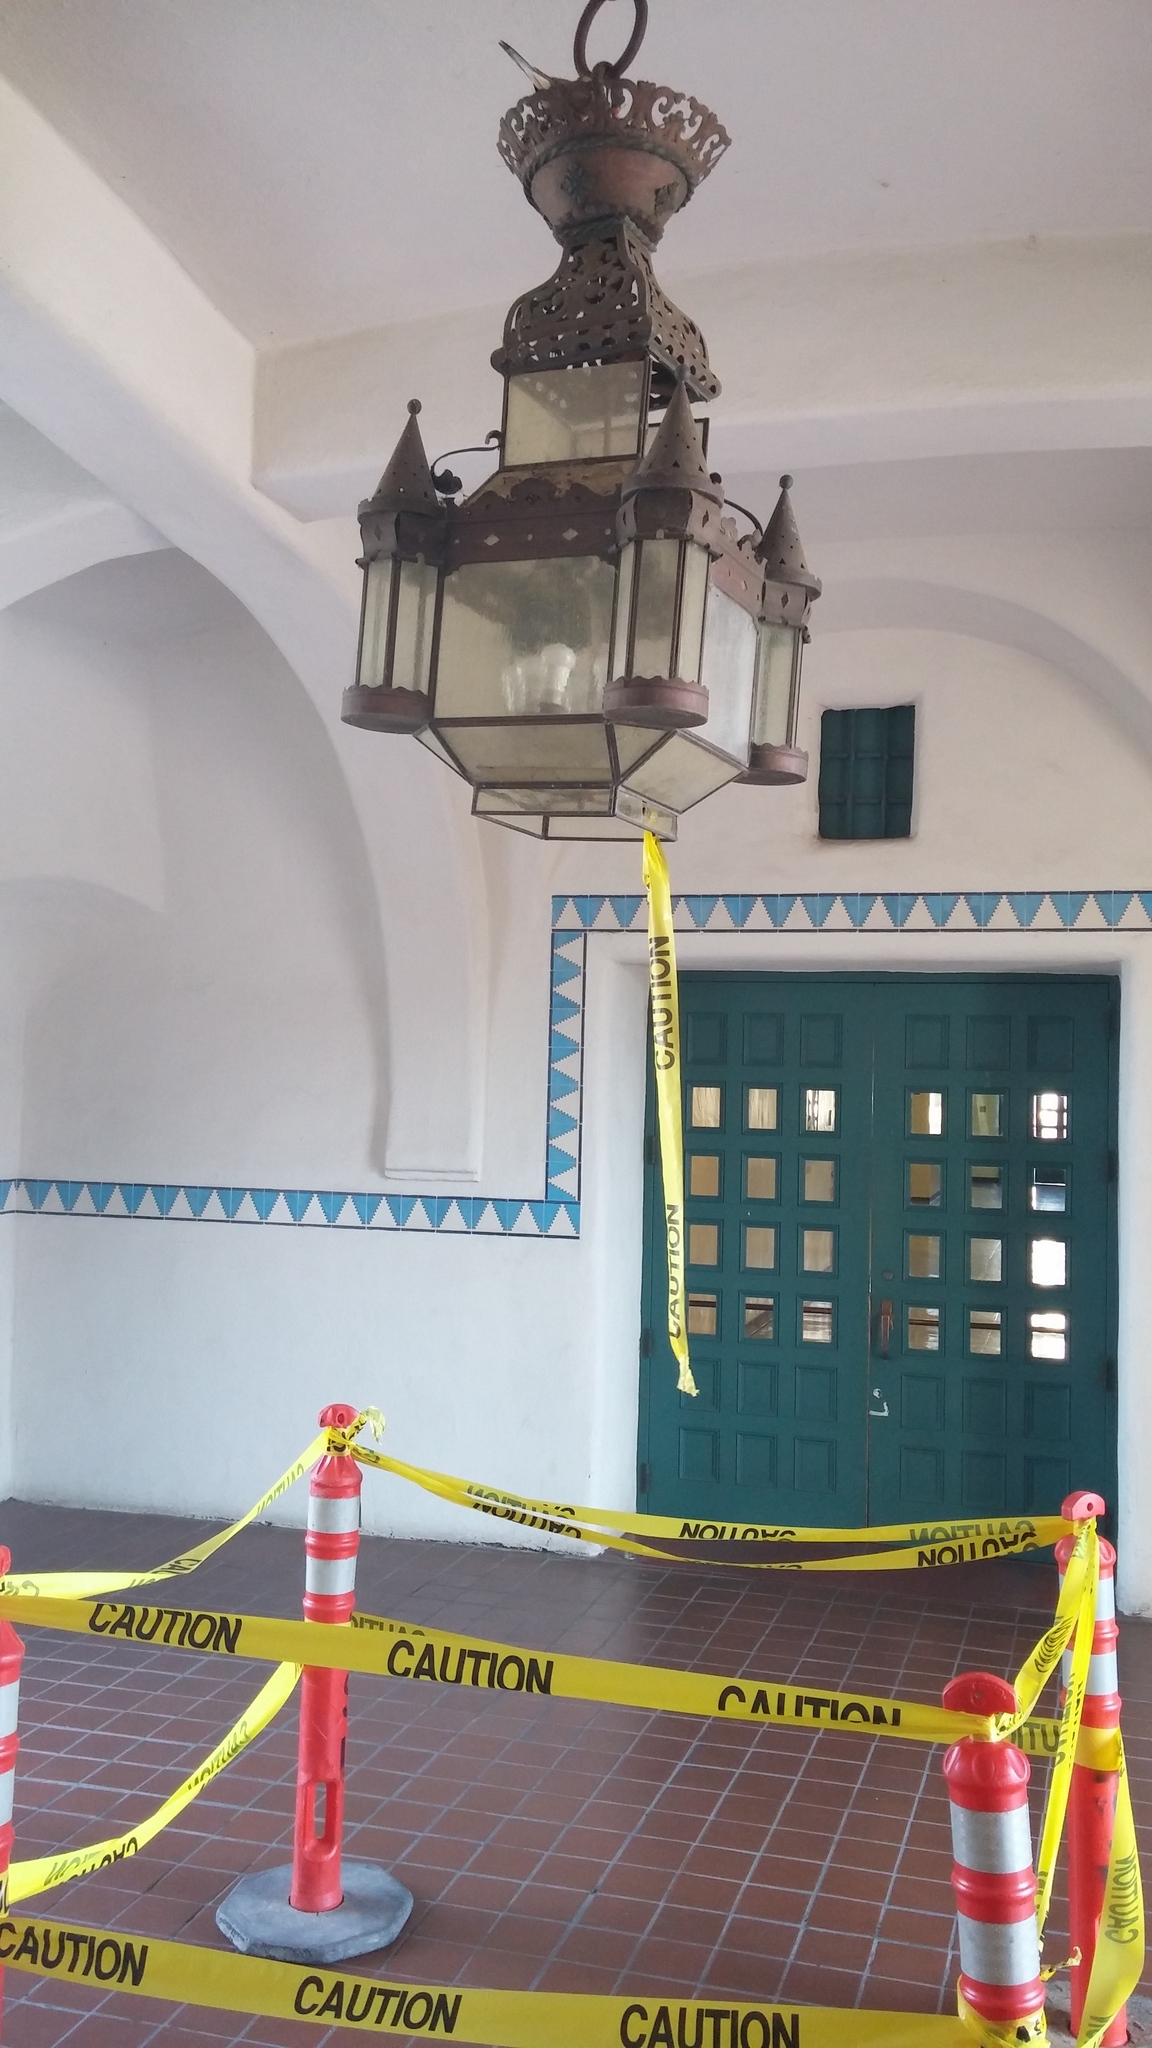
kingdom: Animalia
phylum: Chordata
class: Aves
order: Columbiformes
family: Columbidae
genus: Zenaida
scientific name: Zenaida macroura
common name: Mourning dove
